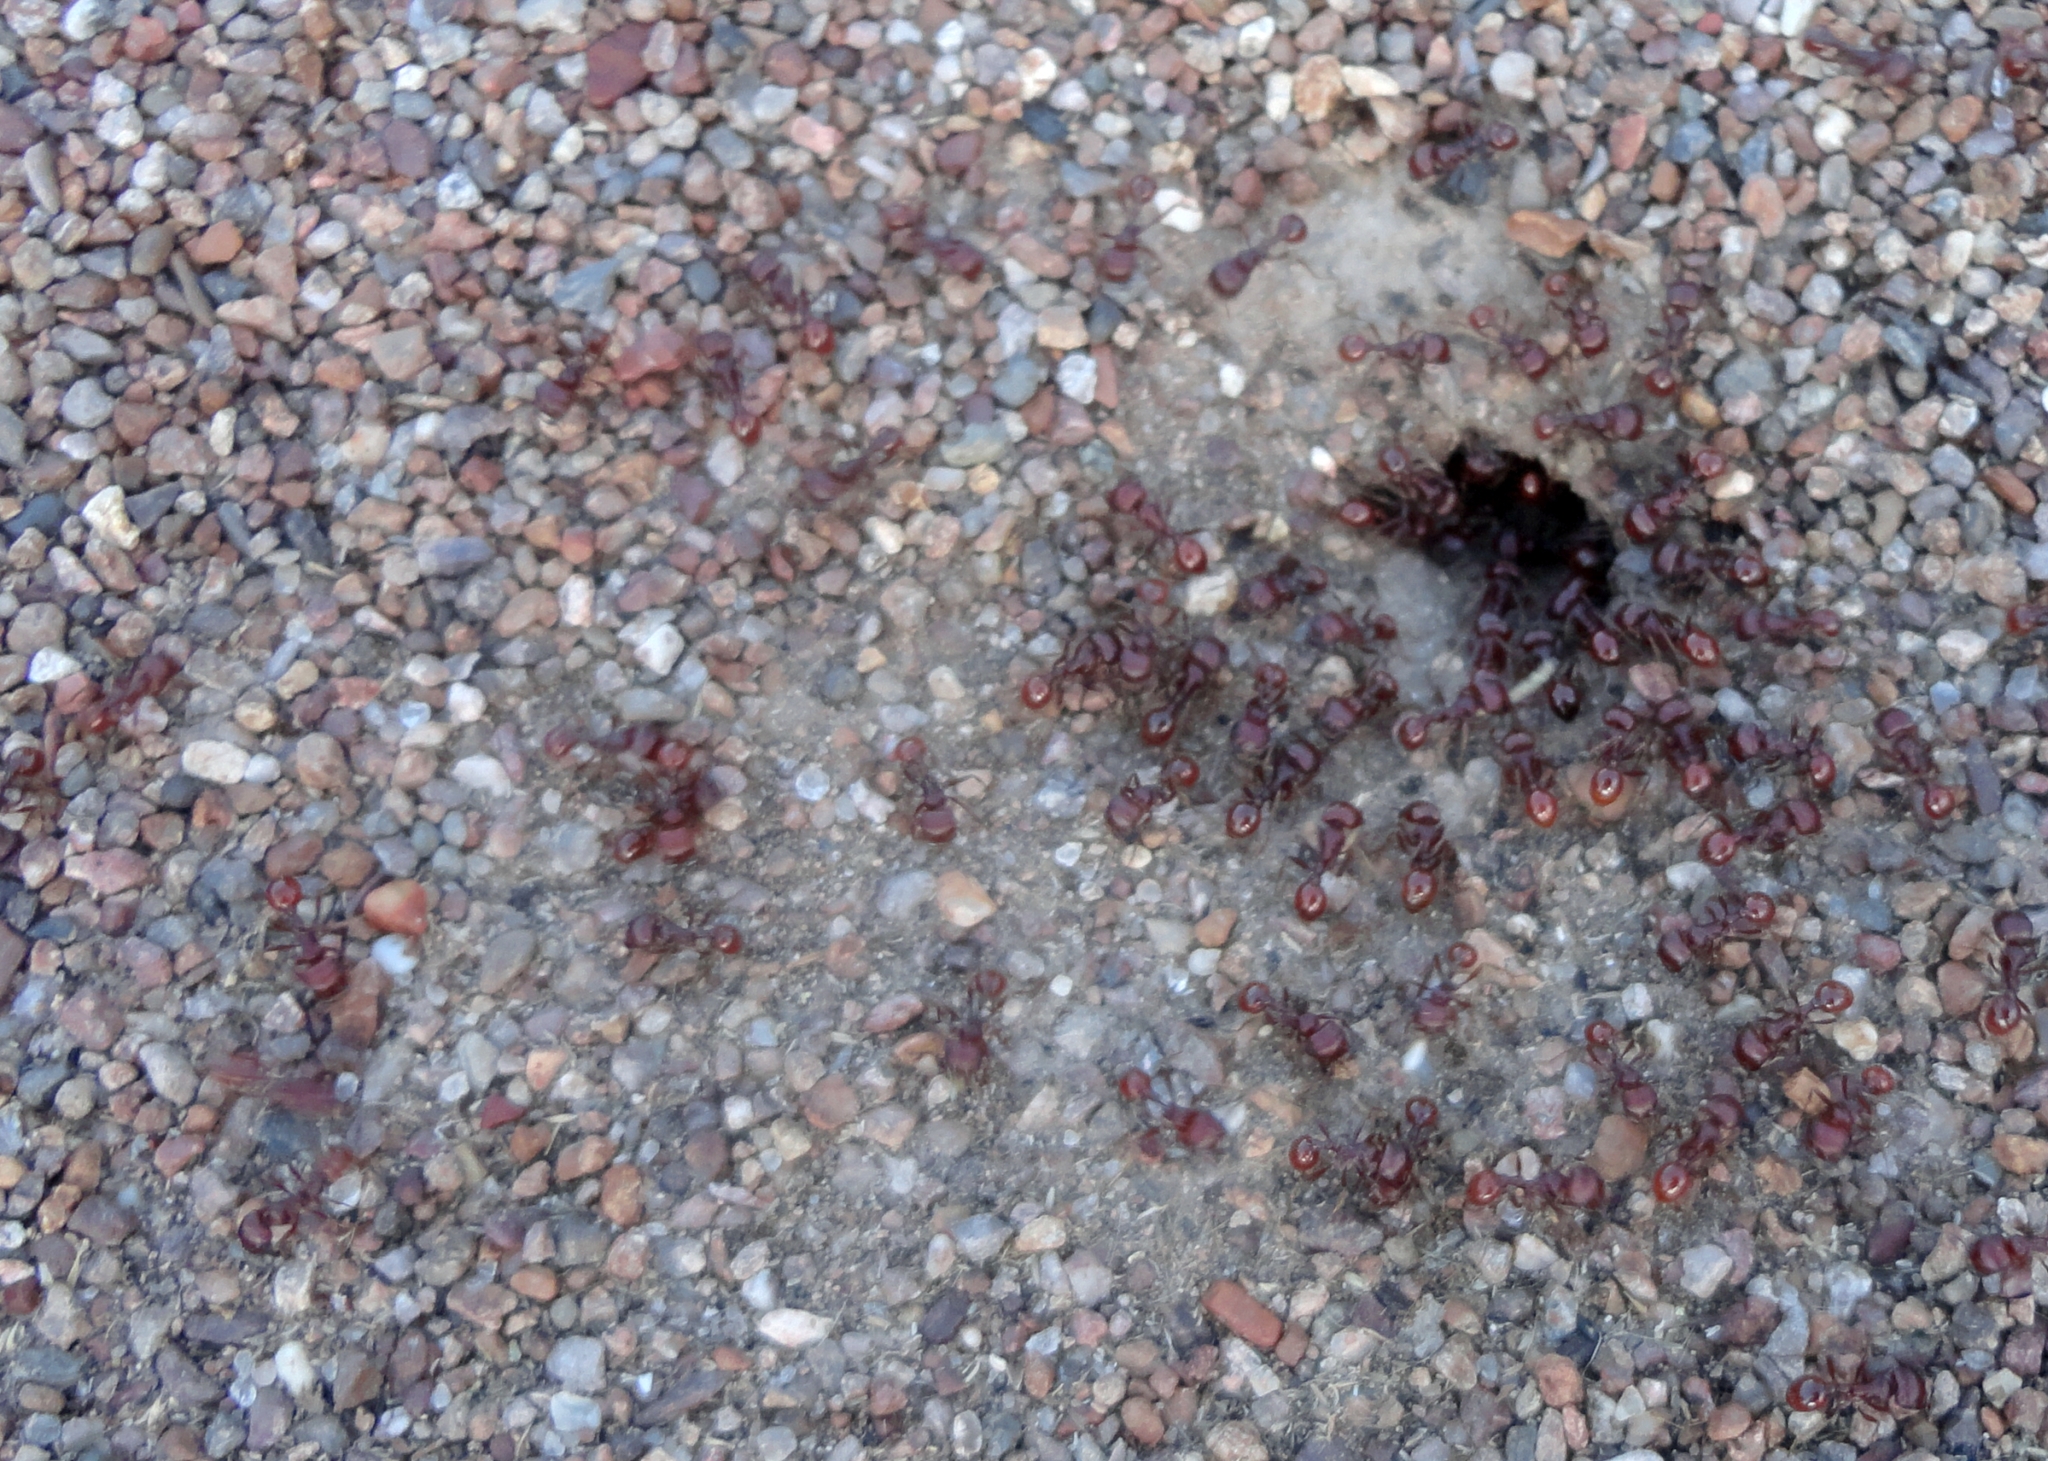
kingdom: Animalia
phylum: Arthropoda
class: Insecta
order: Hymenoptera
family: Formicidae
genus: Pogonomyrmex
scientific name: Pogonomyrmex barbatus
